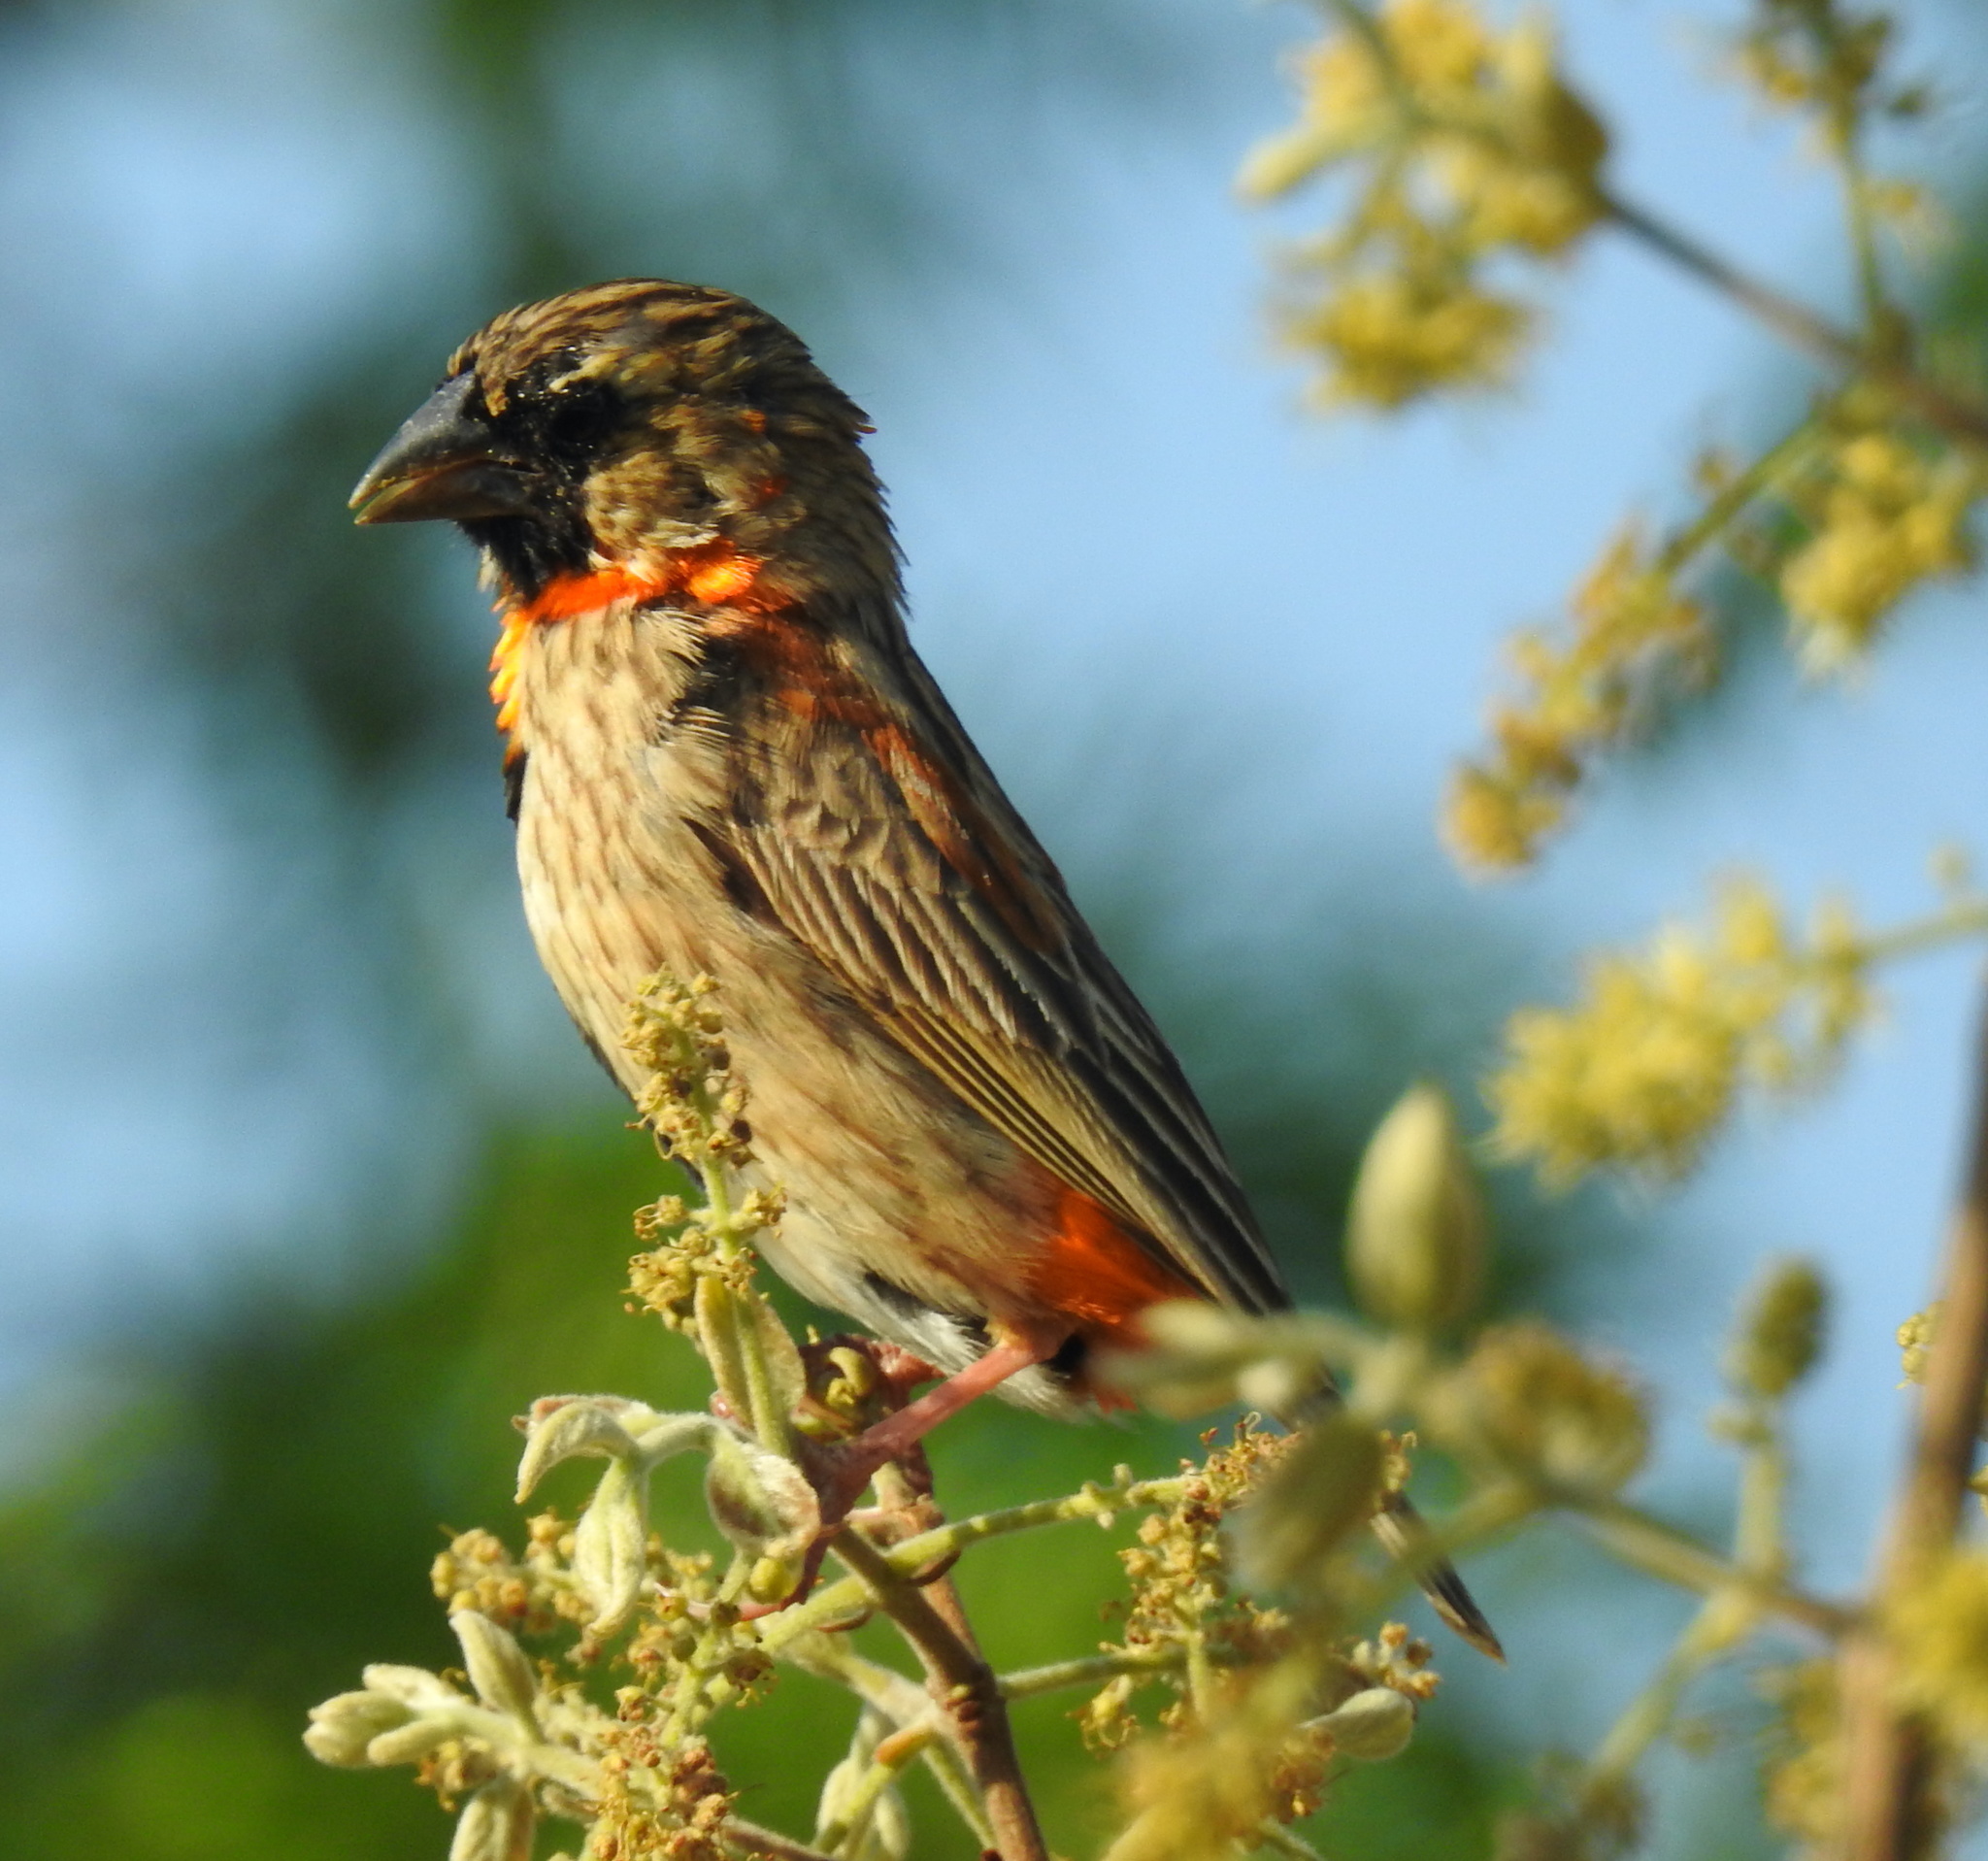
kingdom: Animalia
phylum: Chordata
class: Aves
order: Passeriformes
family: Ploceidae
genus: Euplectes
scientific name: Euplectes orix
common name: Southern red bishop
